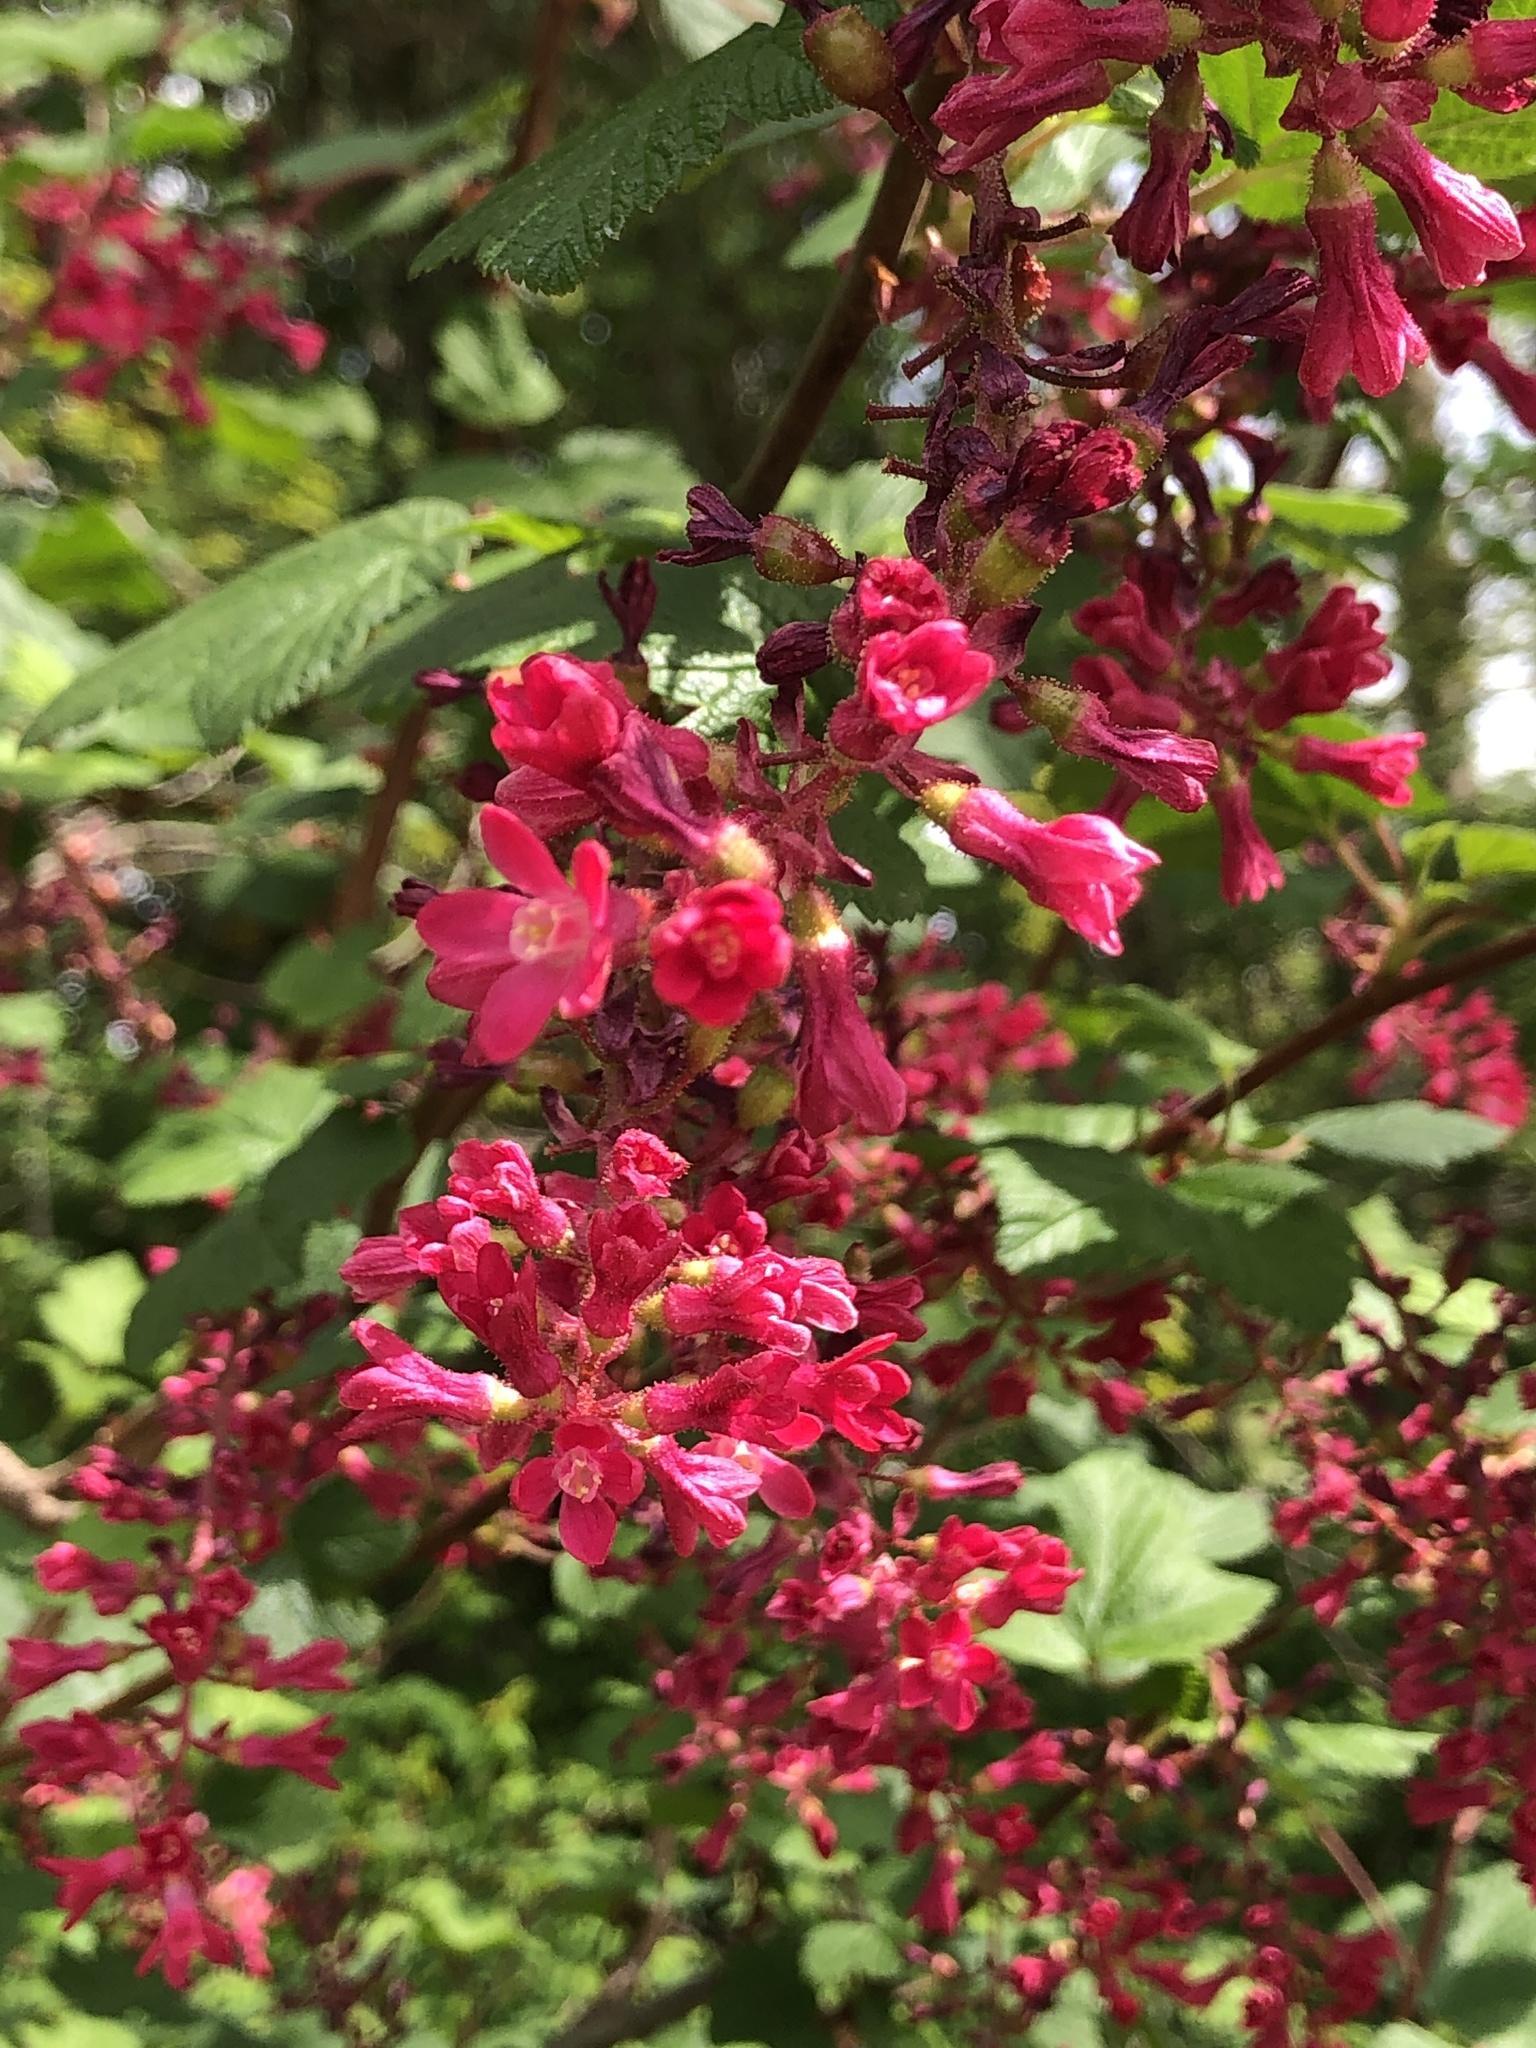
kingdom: Plantae
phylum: Tracheophyta
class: Magnoliopsida
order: Saxifragales
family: Grossulariaceae
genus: Ribes
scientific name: Ribes sanguineum
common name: Flowering currant
